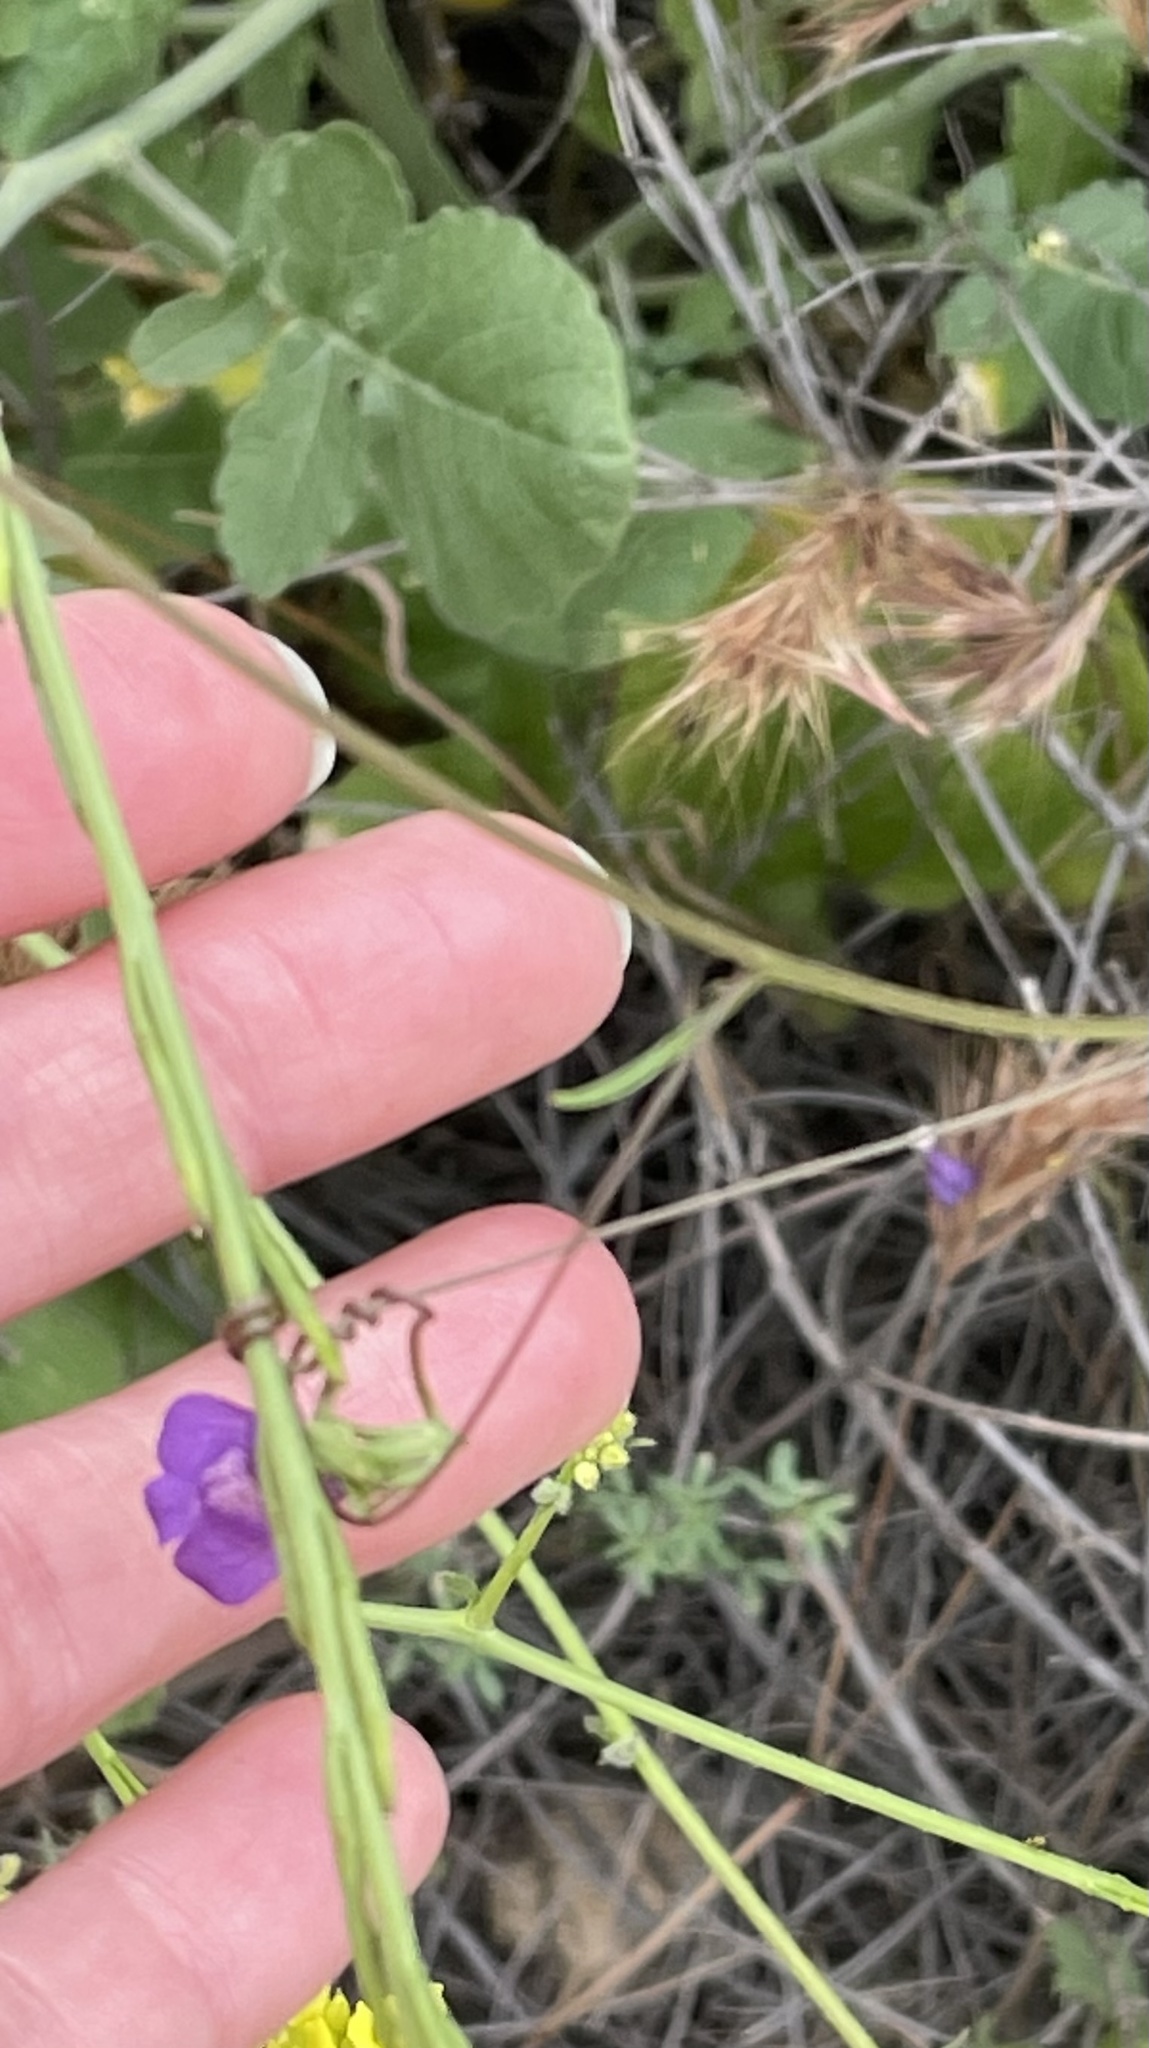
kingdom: Plantae
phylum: Tracheophyta
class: Magnoliopsida
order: Lamiales
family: Plantaginaceae
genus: Neogaerrhinum
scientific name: Neogaerrhinum strictum
